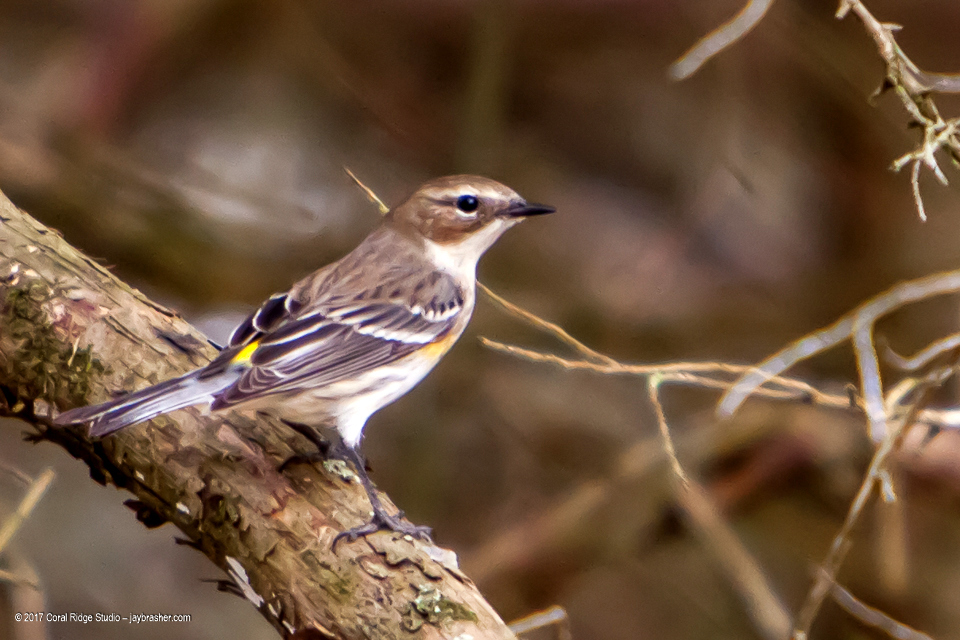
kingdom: Animalia
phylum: Chordata
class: Aves
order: Passeriformes
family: Parulidae
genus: Setophaga
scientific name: Setophaga coronata
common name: Myrtle warbler
